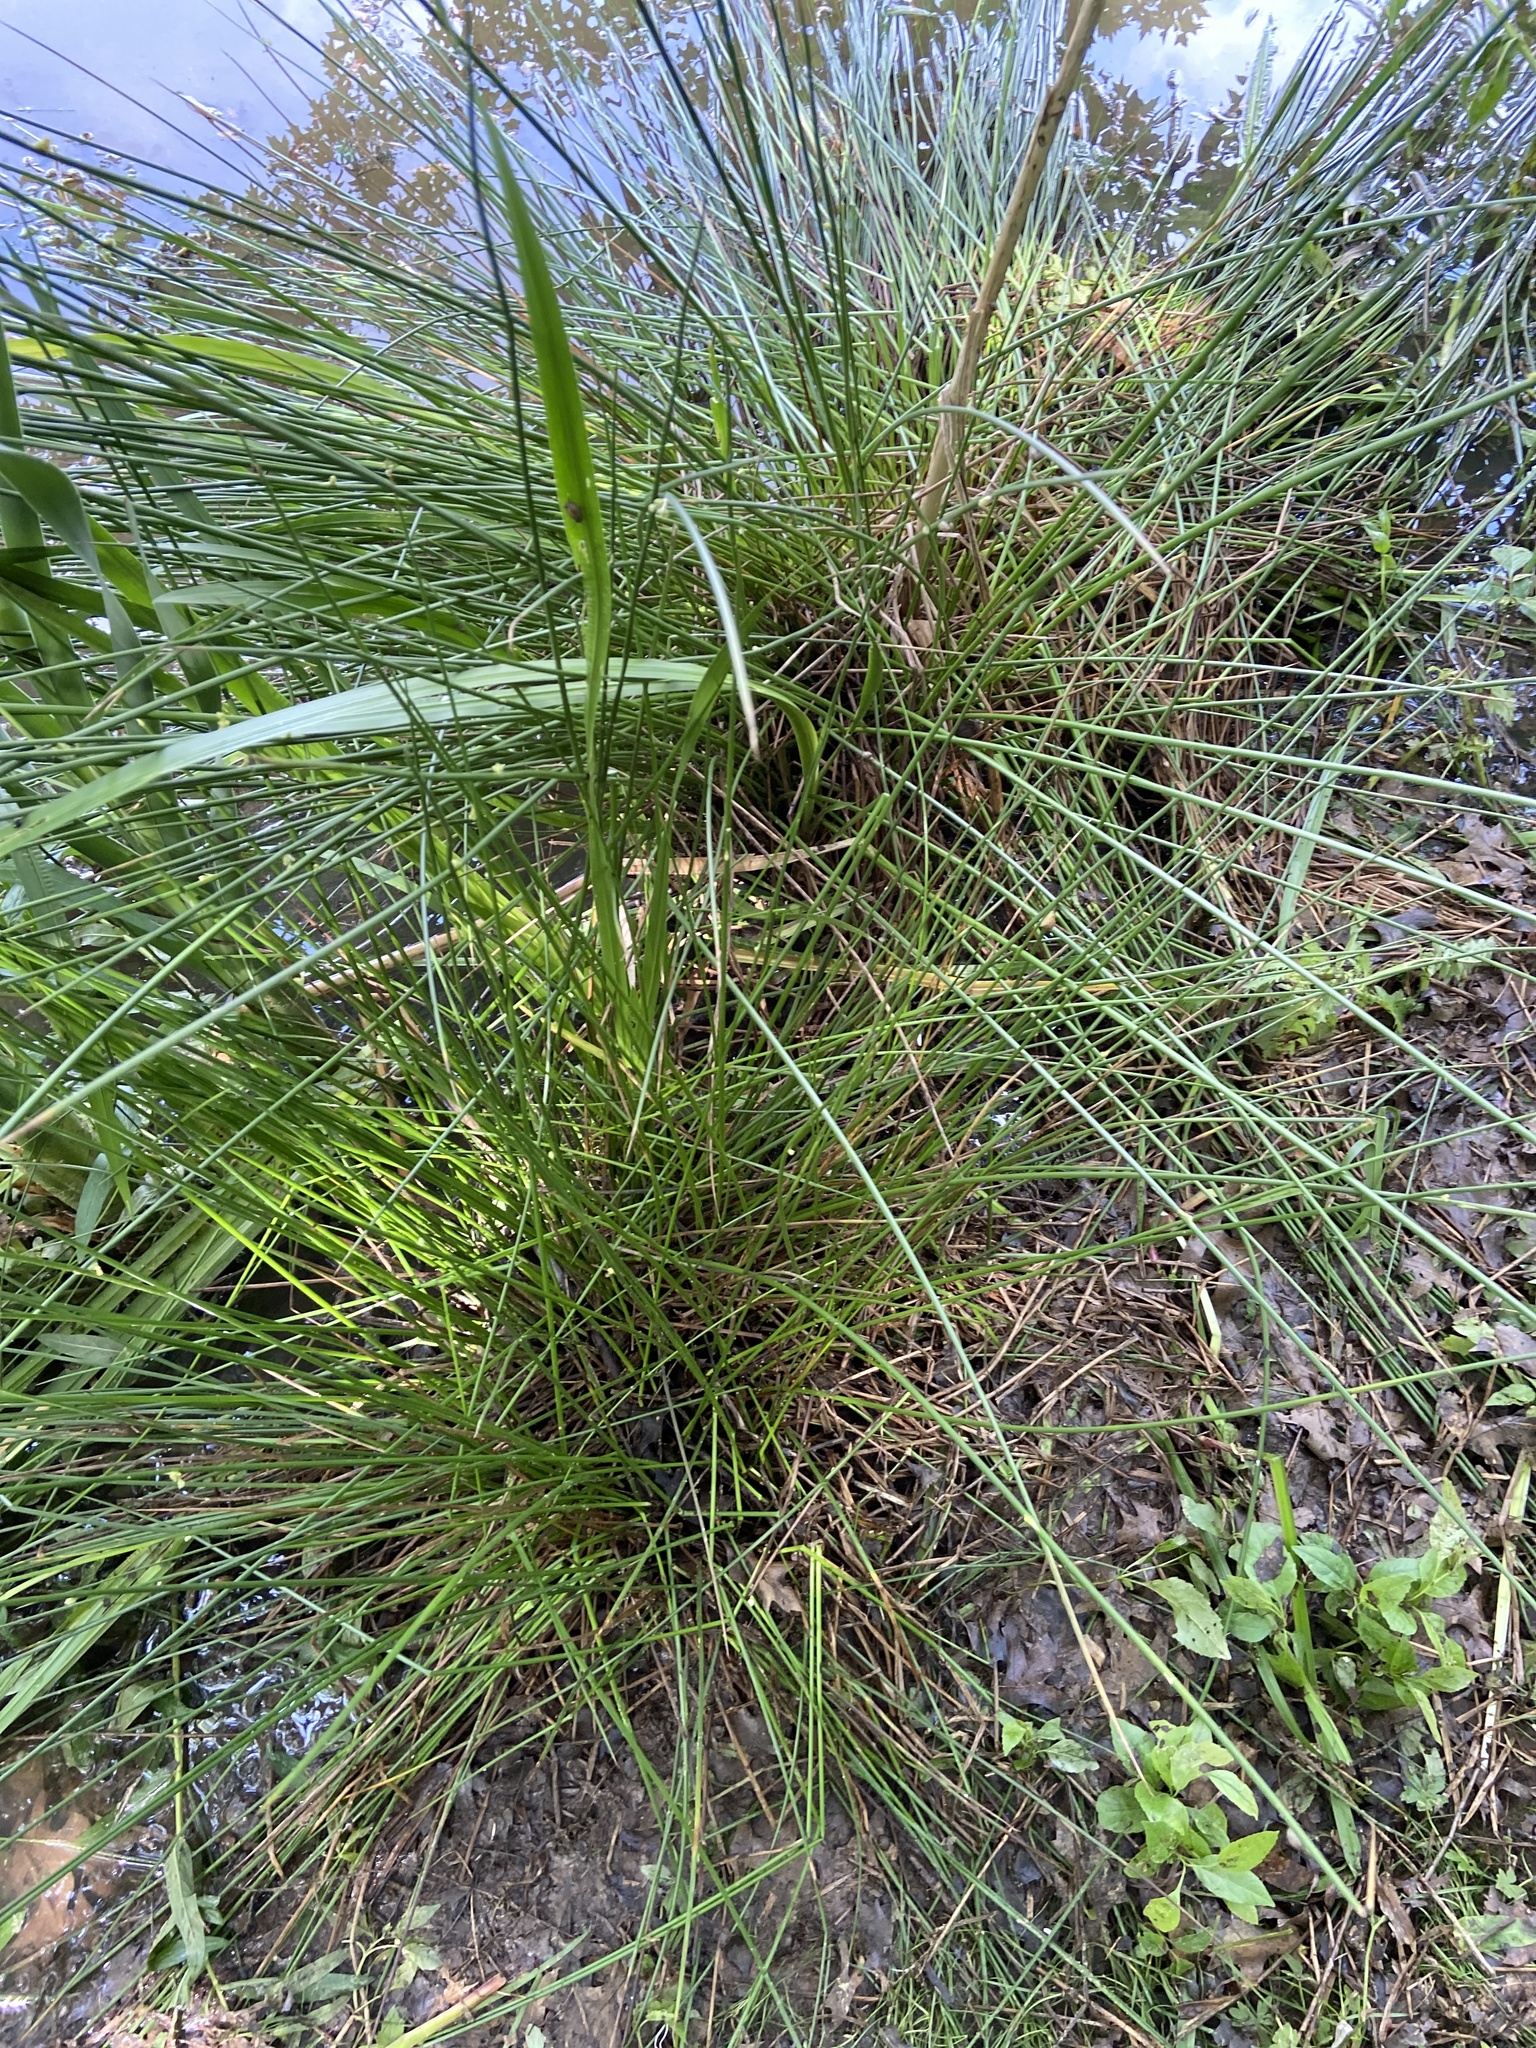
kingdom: Plantae
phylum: Tracheophyta
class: Liliopsida
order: Poales
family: Juncaceae
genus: Juncus
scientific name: Juncus effusus
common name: Soft rush
